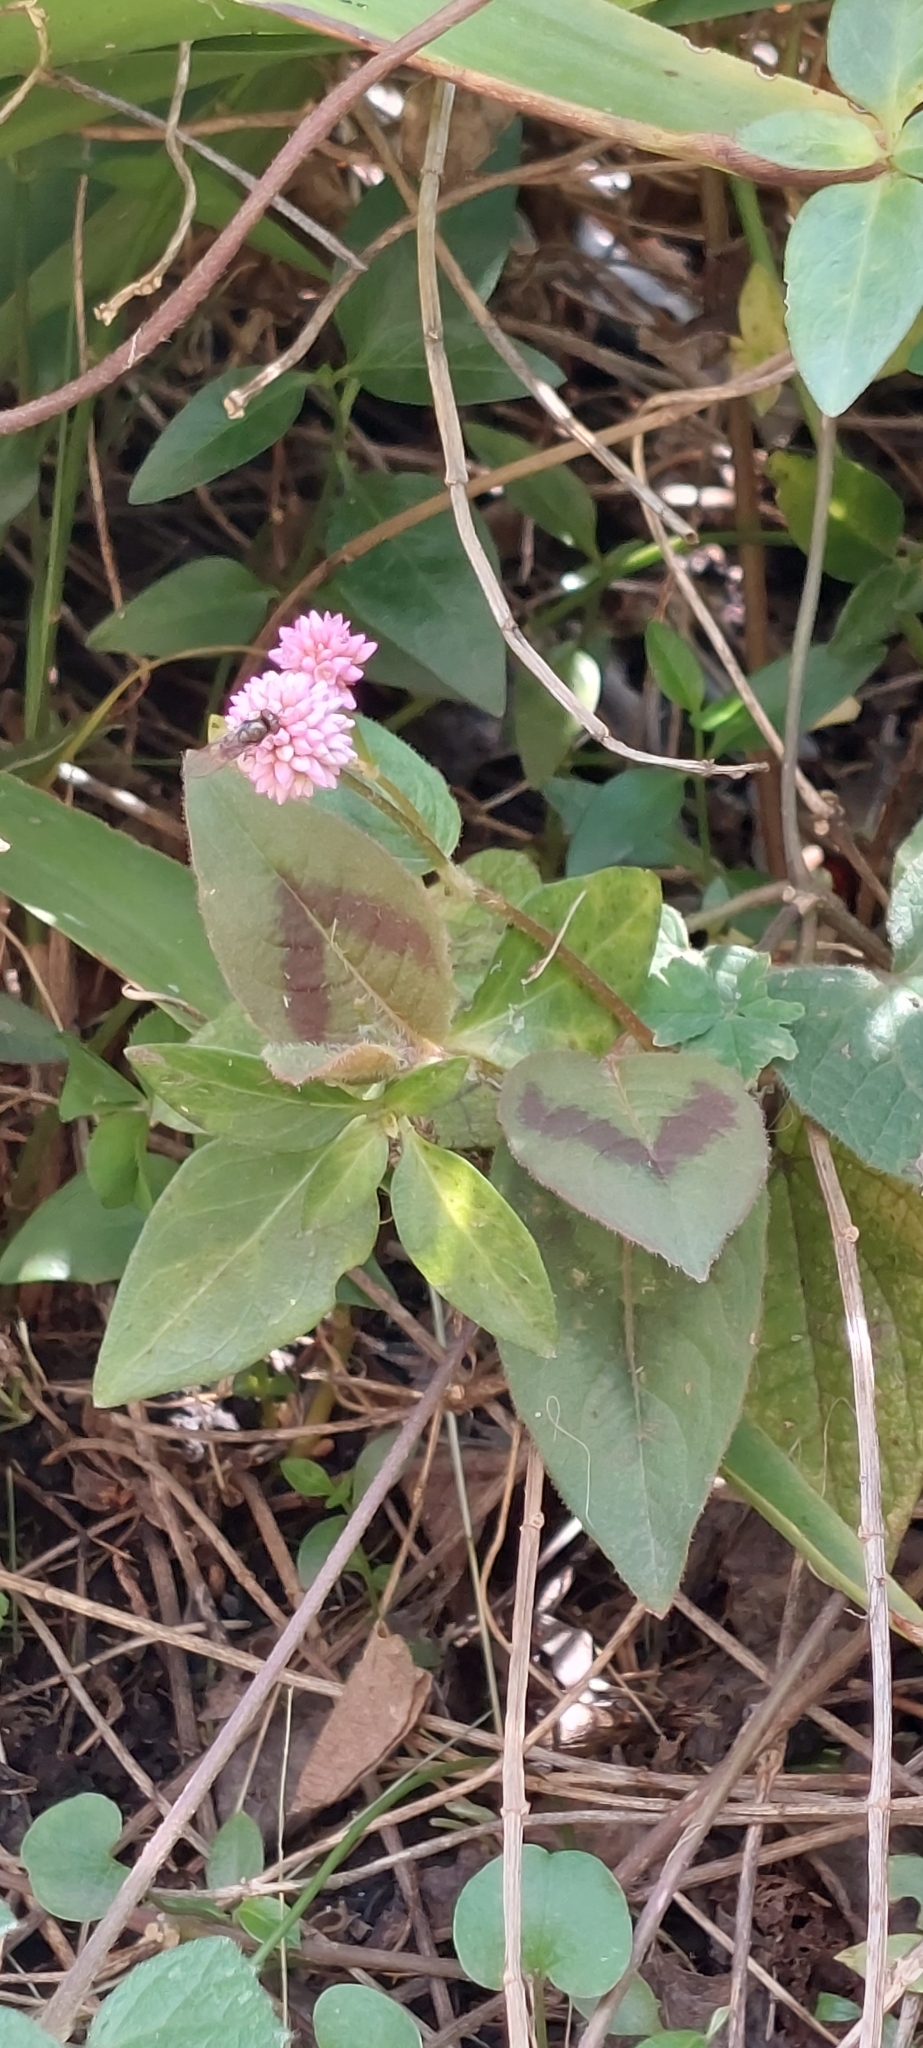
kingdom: Plantae
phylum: Tracheophyta
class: Magnoliopsida
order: Caryophyllales
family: Polygonaceae
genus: Persicaria
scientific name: Persicaria capitata
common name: Pinkhead smartweed
